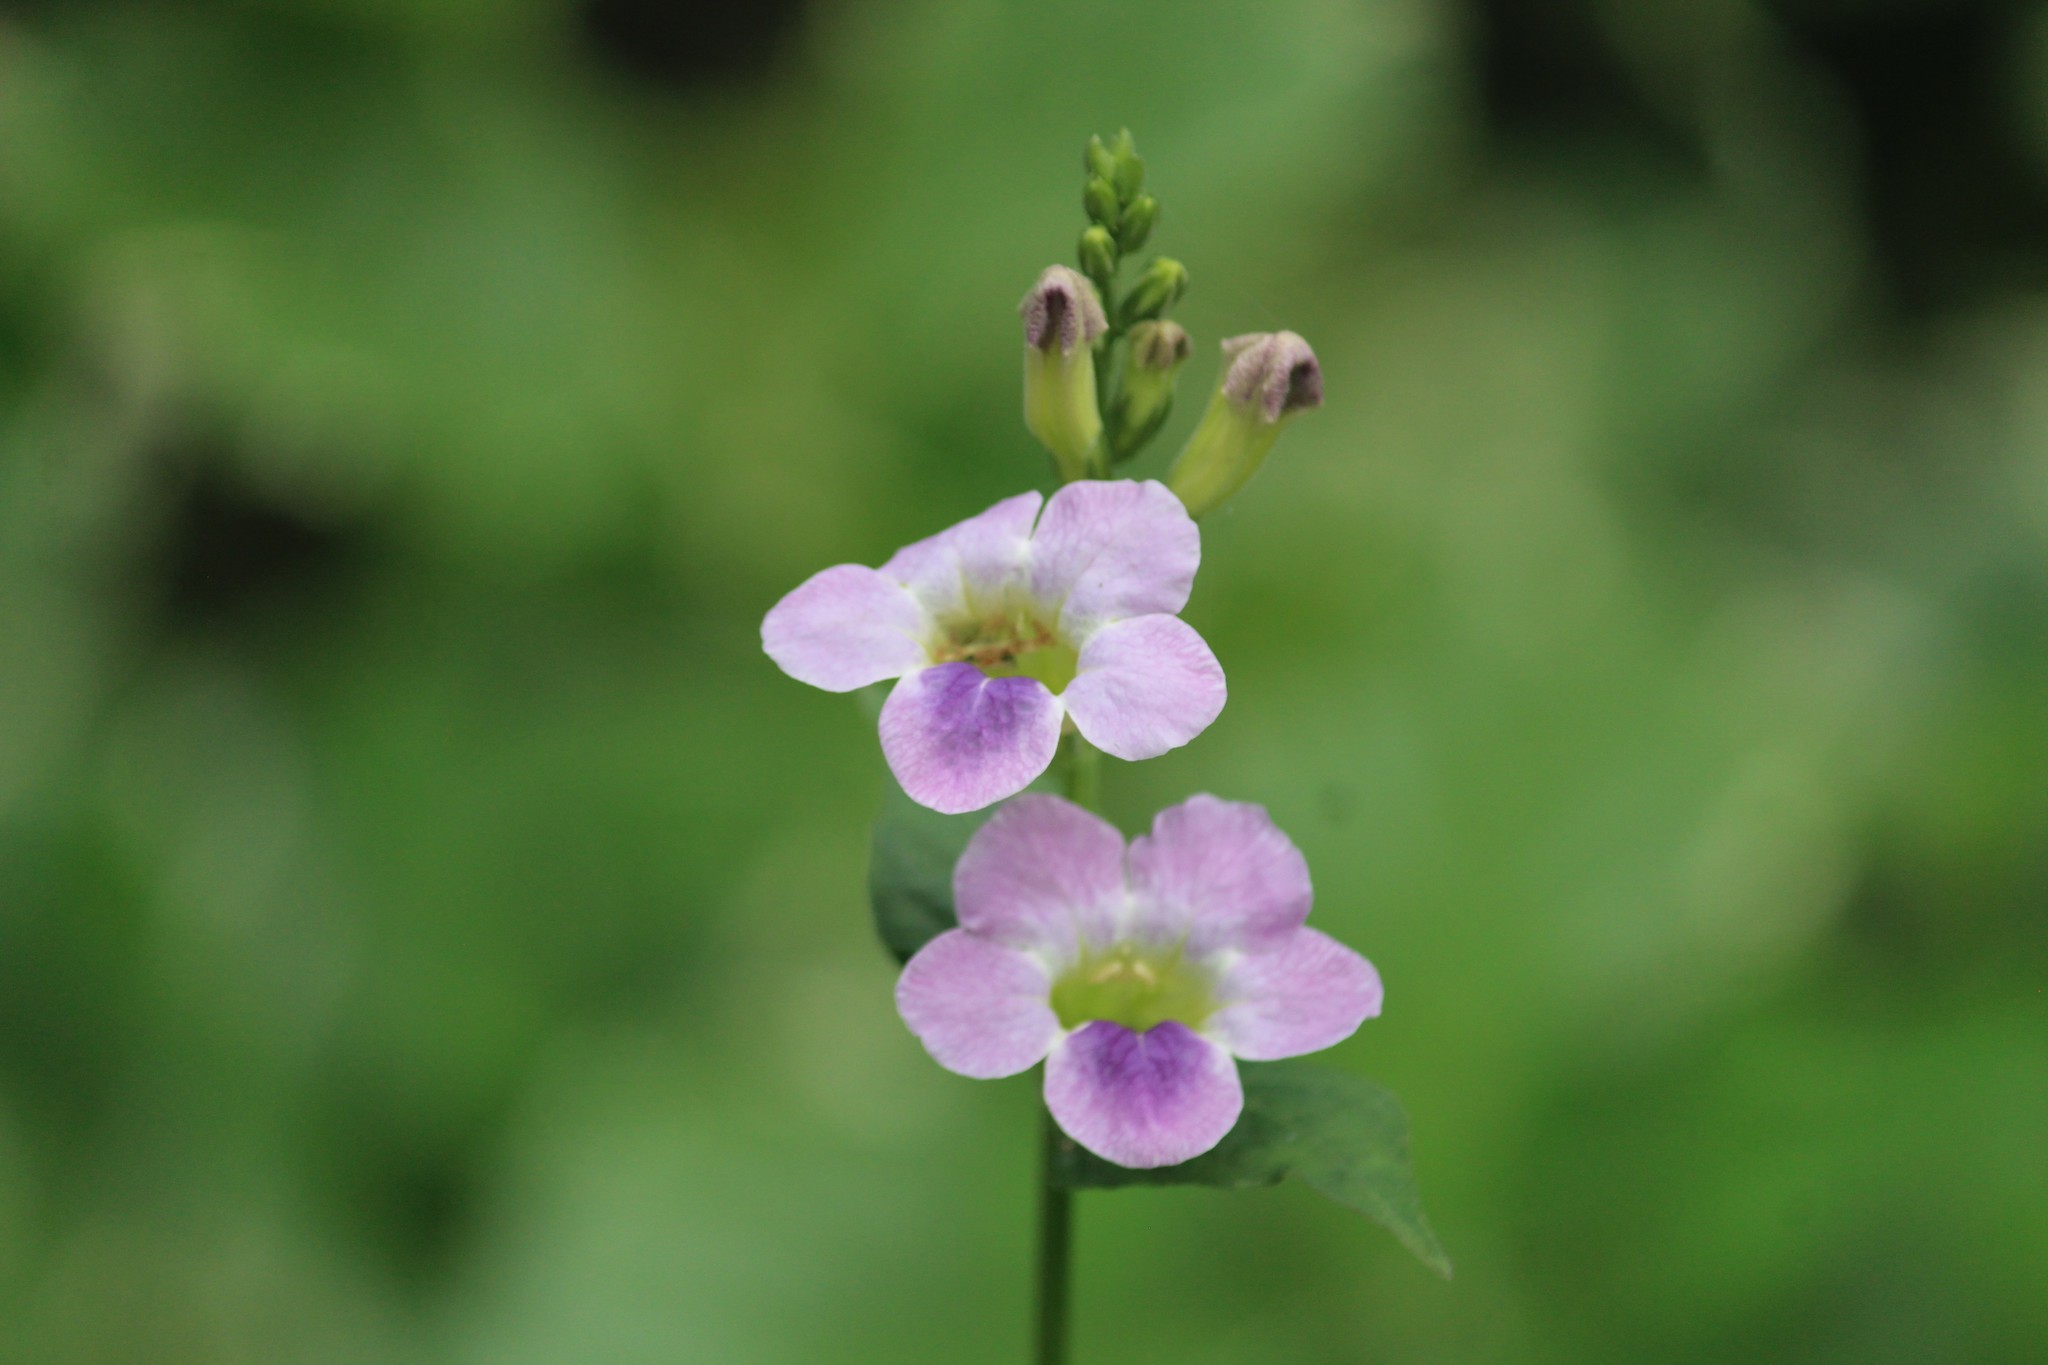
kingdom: Plantae
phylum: Tracheophyta
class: Magnoliopsida
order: Lamiales
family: Acanthaceae
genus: Asystasia
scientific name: Asystasia gangetica
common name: Chinese violet
